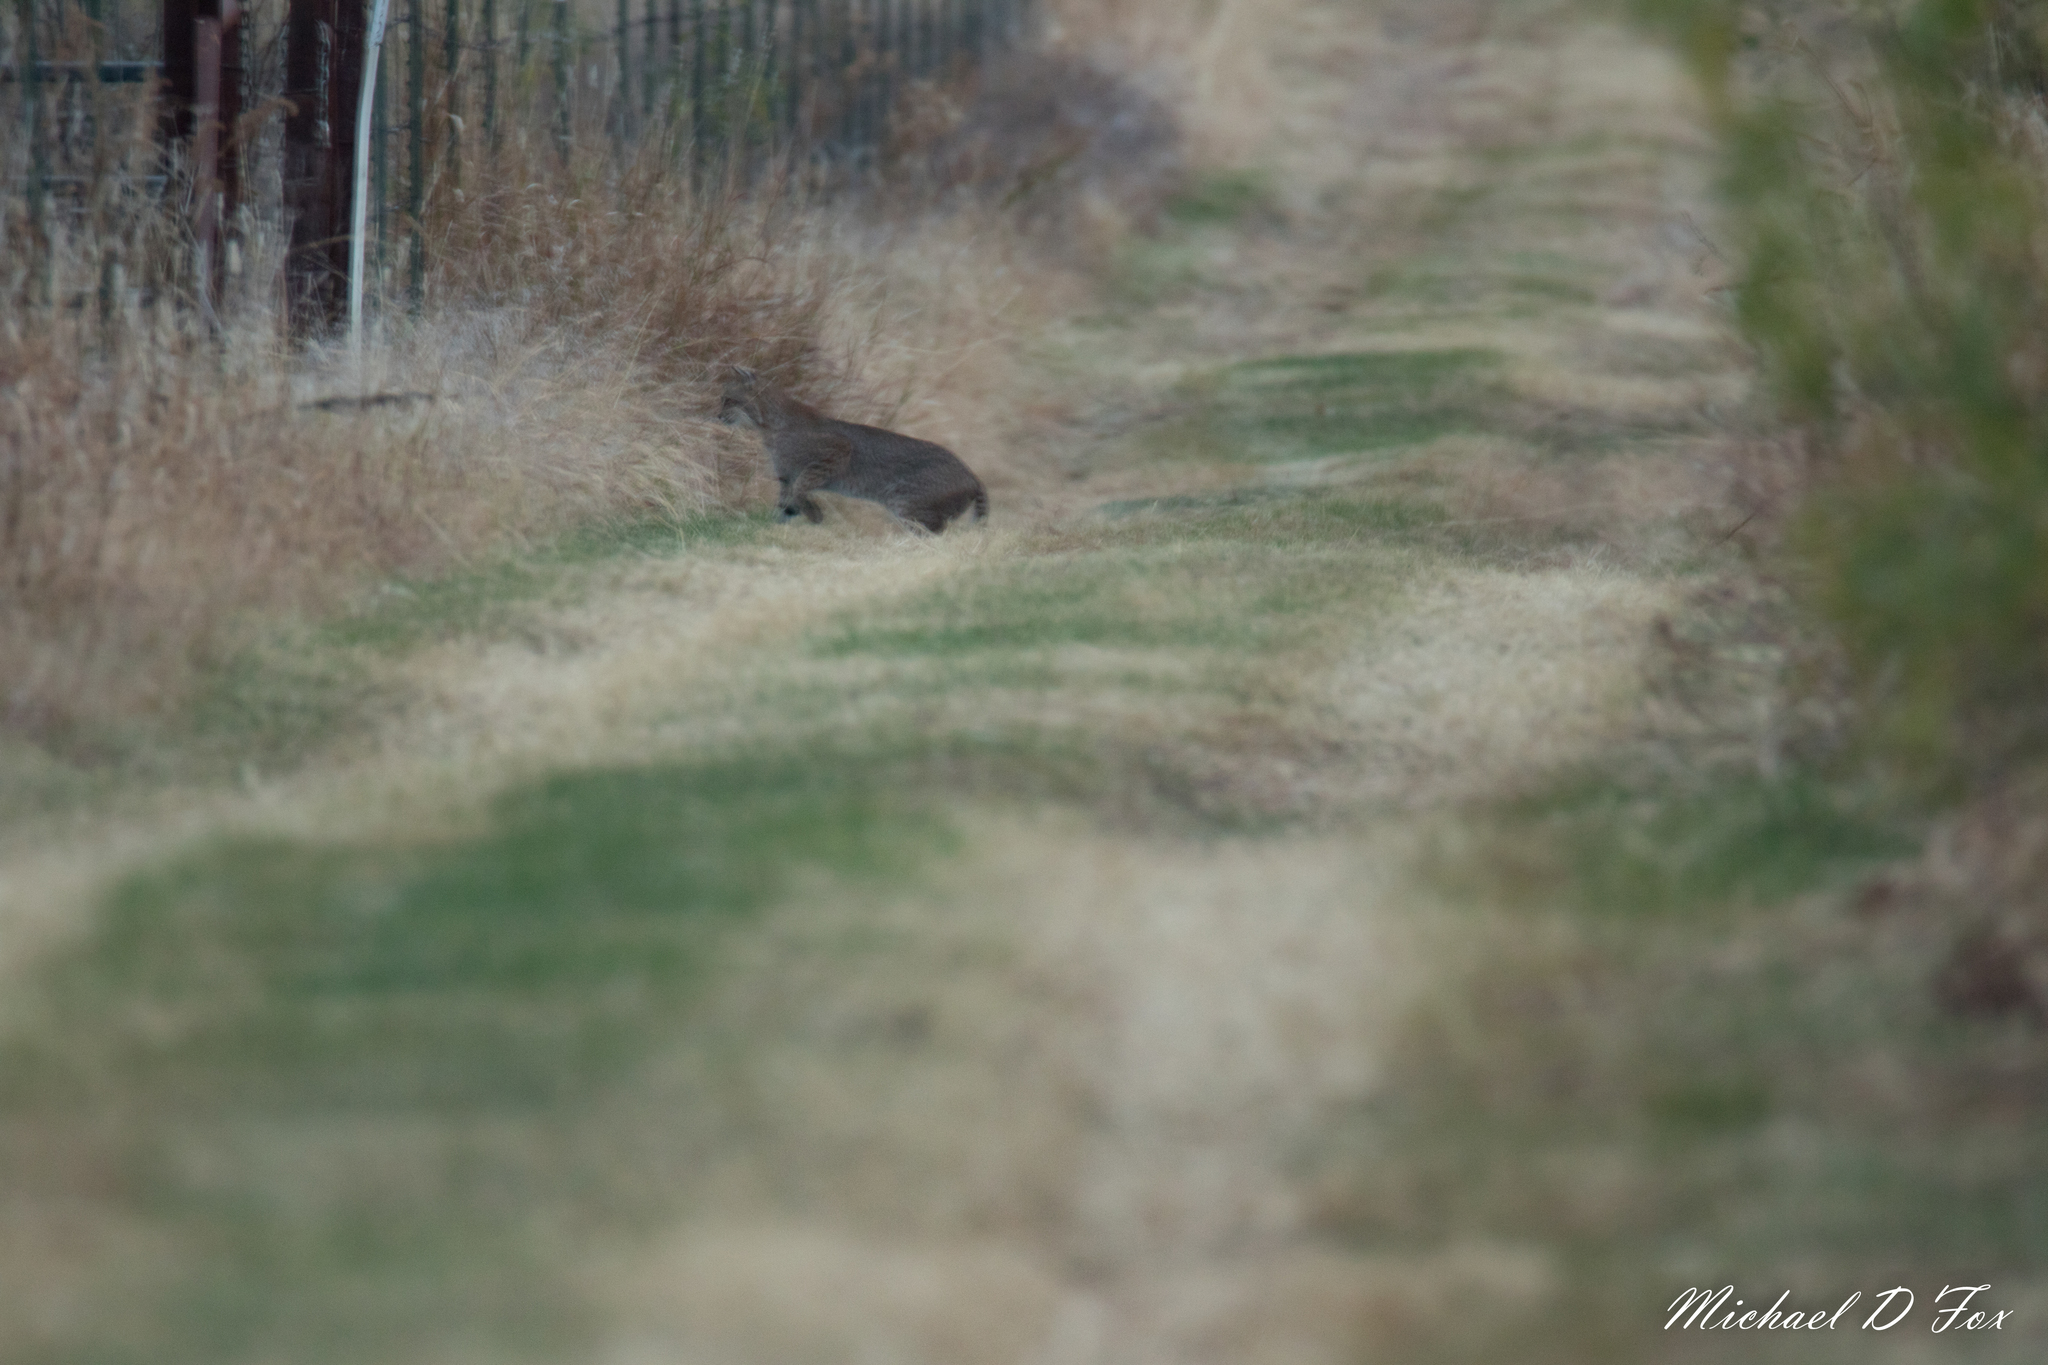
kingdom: Animalia
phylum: Chordata
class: Mammalia
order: Carnivora
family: Felidae
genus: Lynx
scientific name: Lynx rufus
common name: Bobcat
